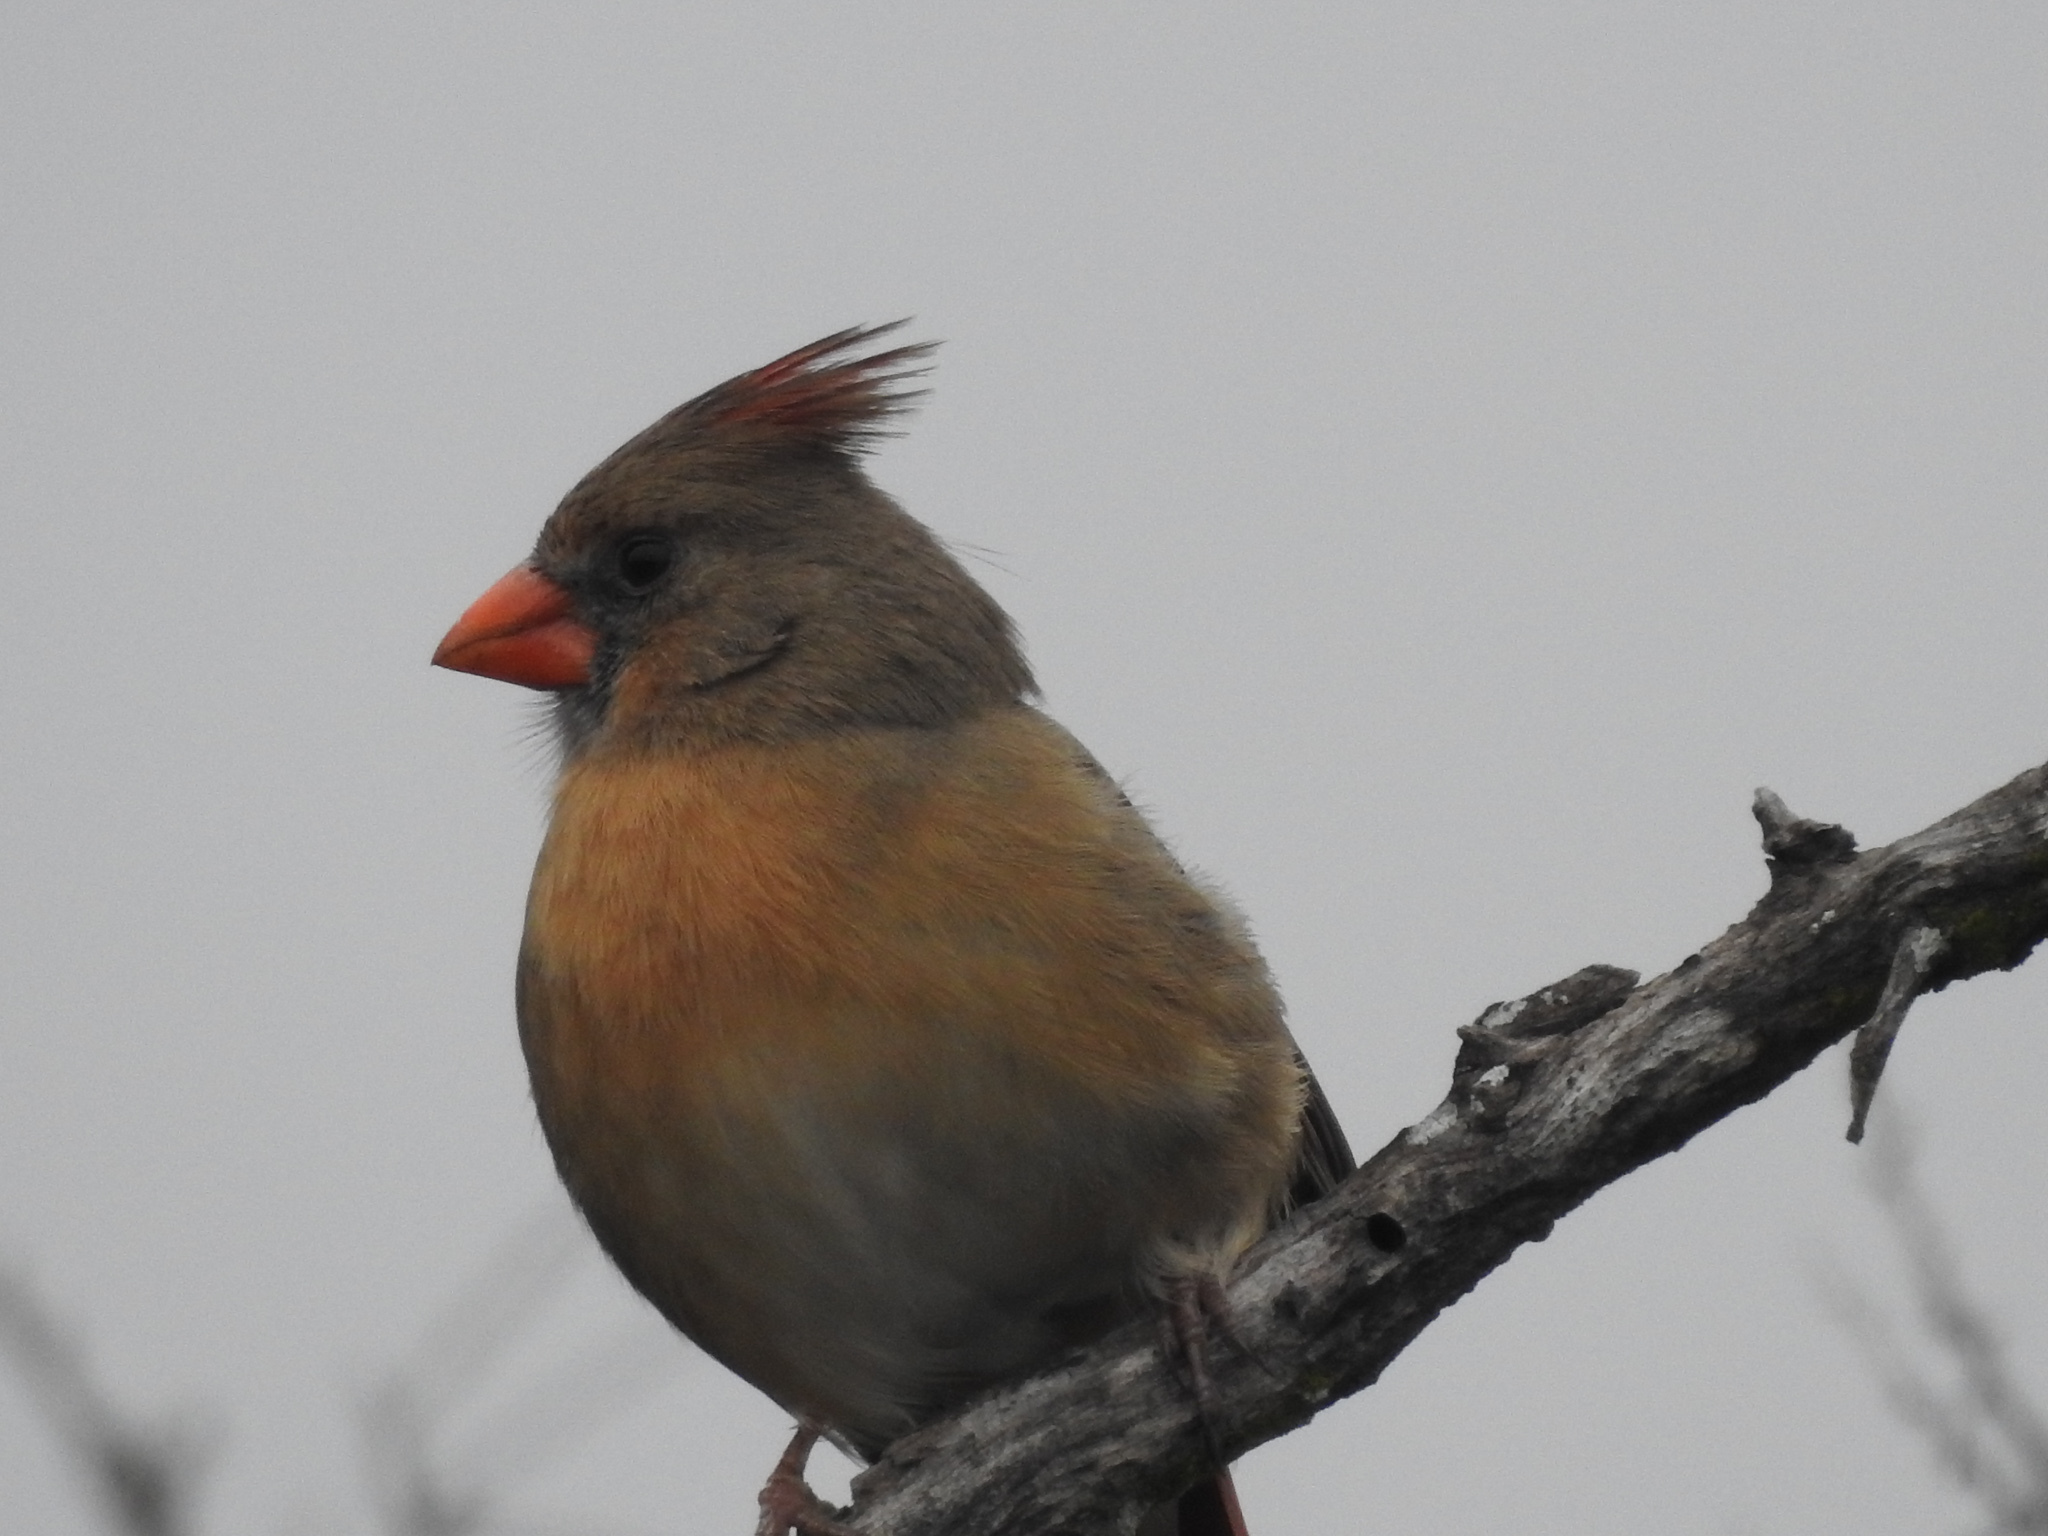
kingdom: Animalia
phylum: Chordata
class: Aves
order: Passeriformes
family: Cardinalidae
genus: Cardinalis
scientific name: Cardinalis cardinalis
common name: Northern cardinal
